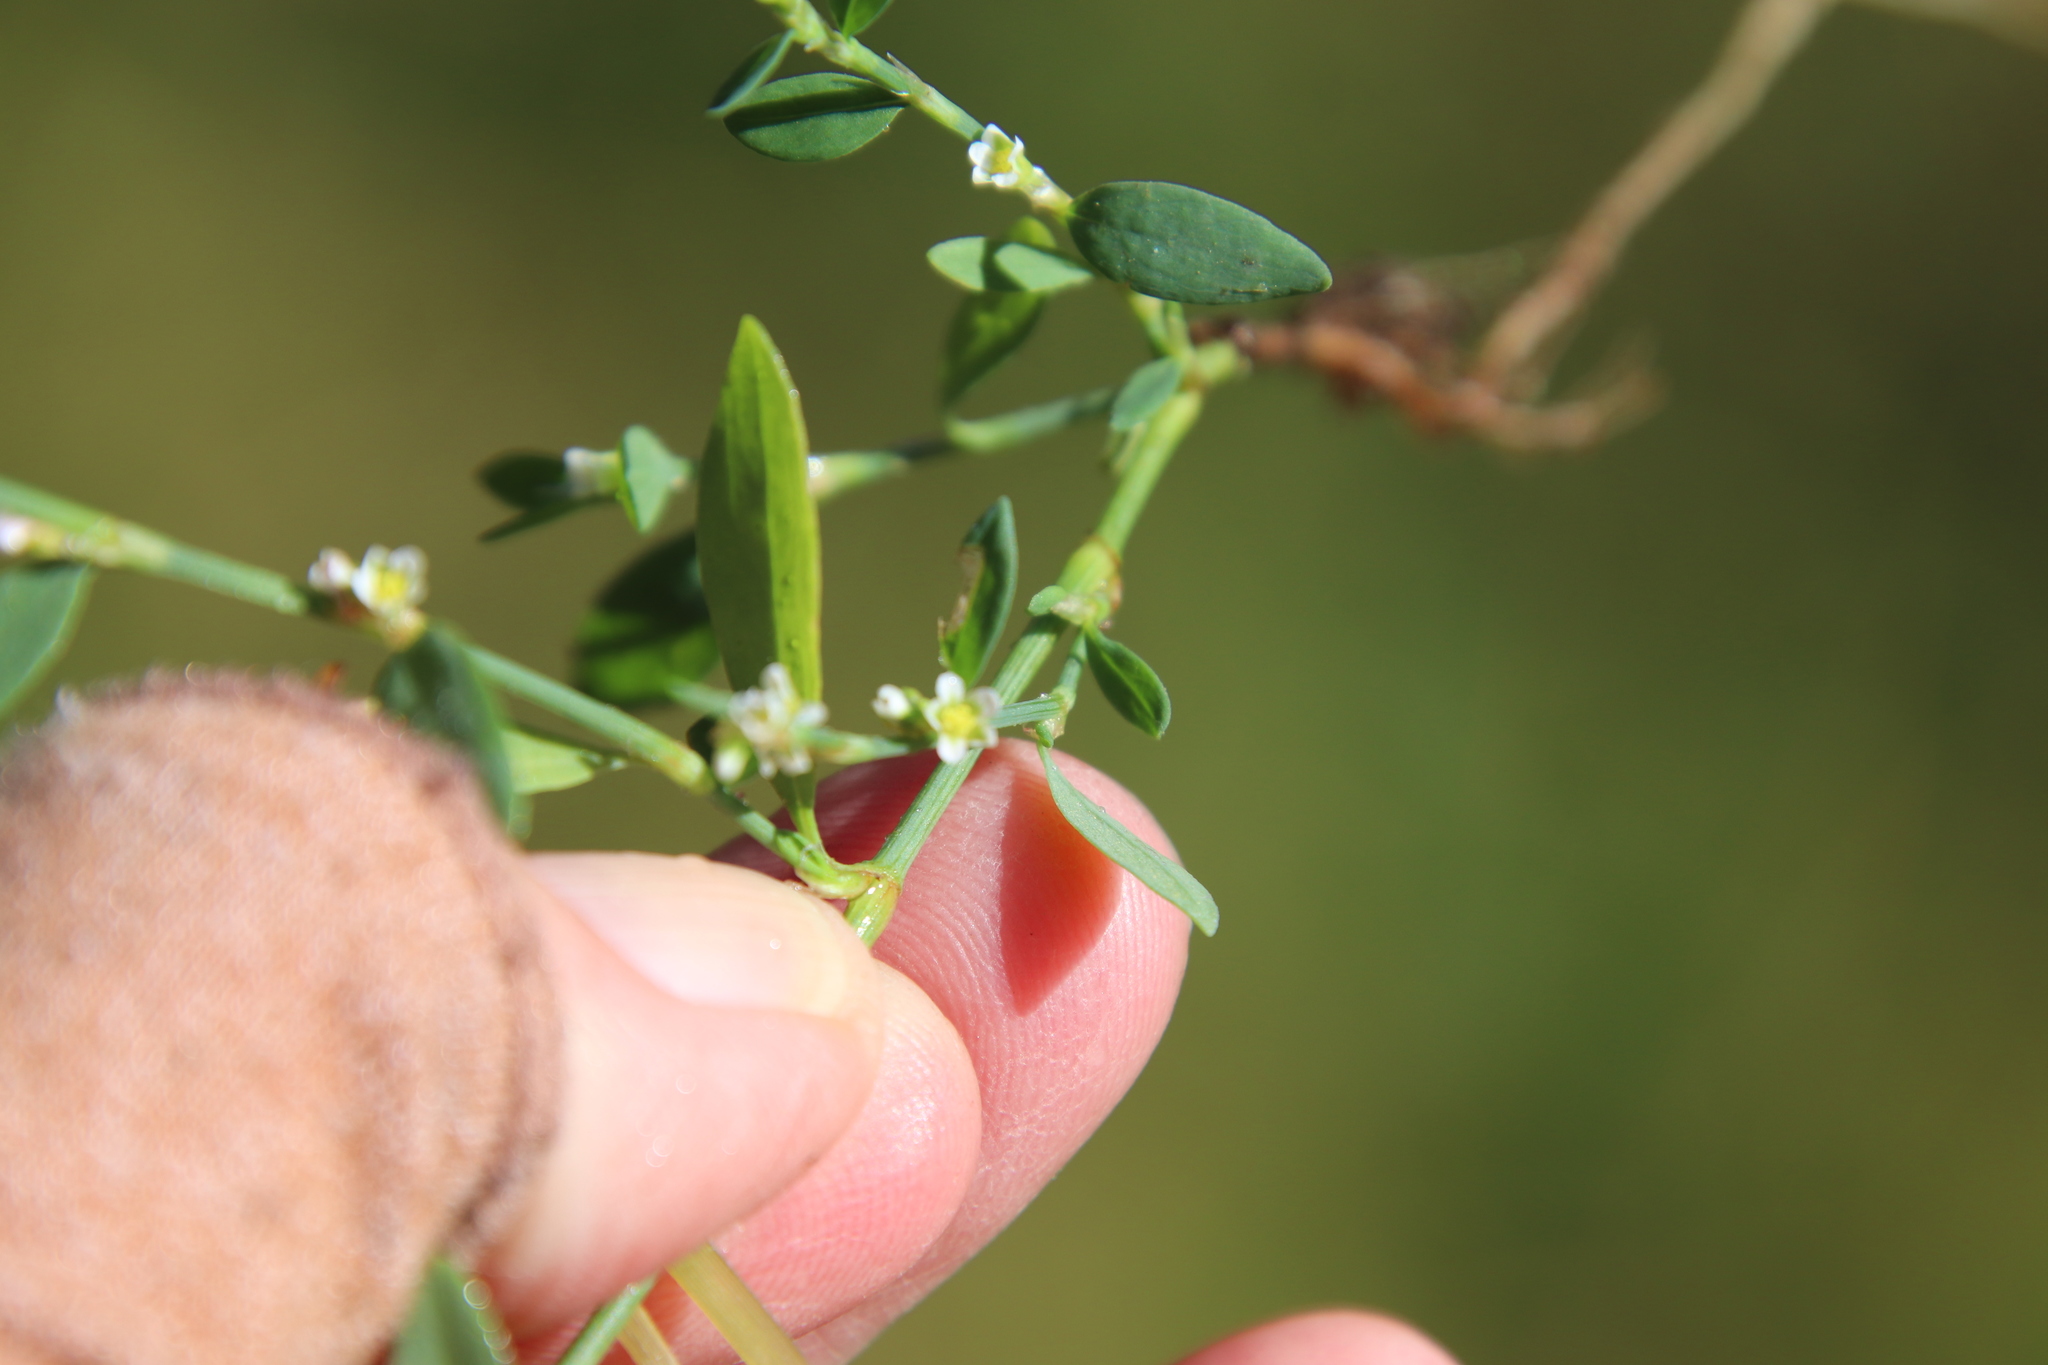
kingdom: Plantae
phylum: Tracheophyta
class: Magnoliopsida
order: Caryophyllales
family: Polygonaceae
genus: Polygonum
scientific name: Polygonum aviculare
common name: Prostrate knotweed
